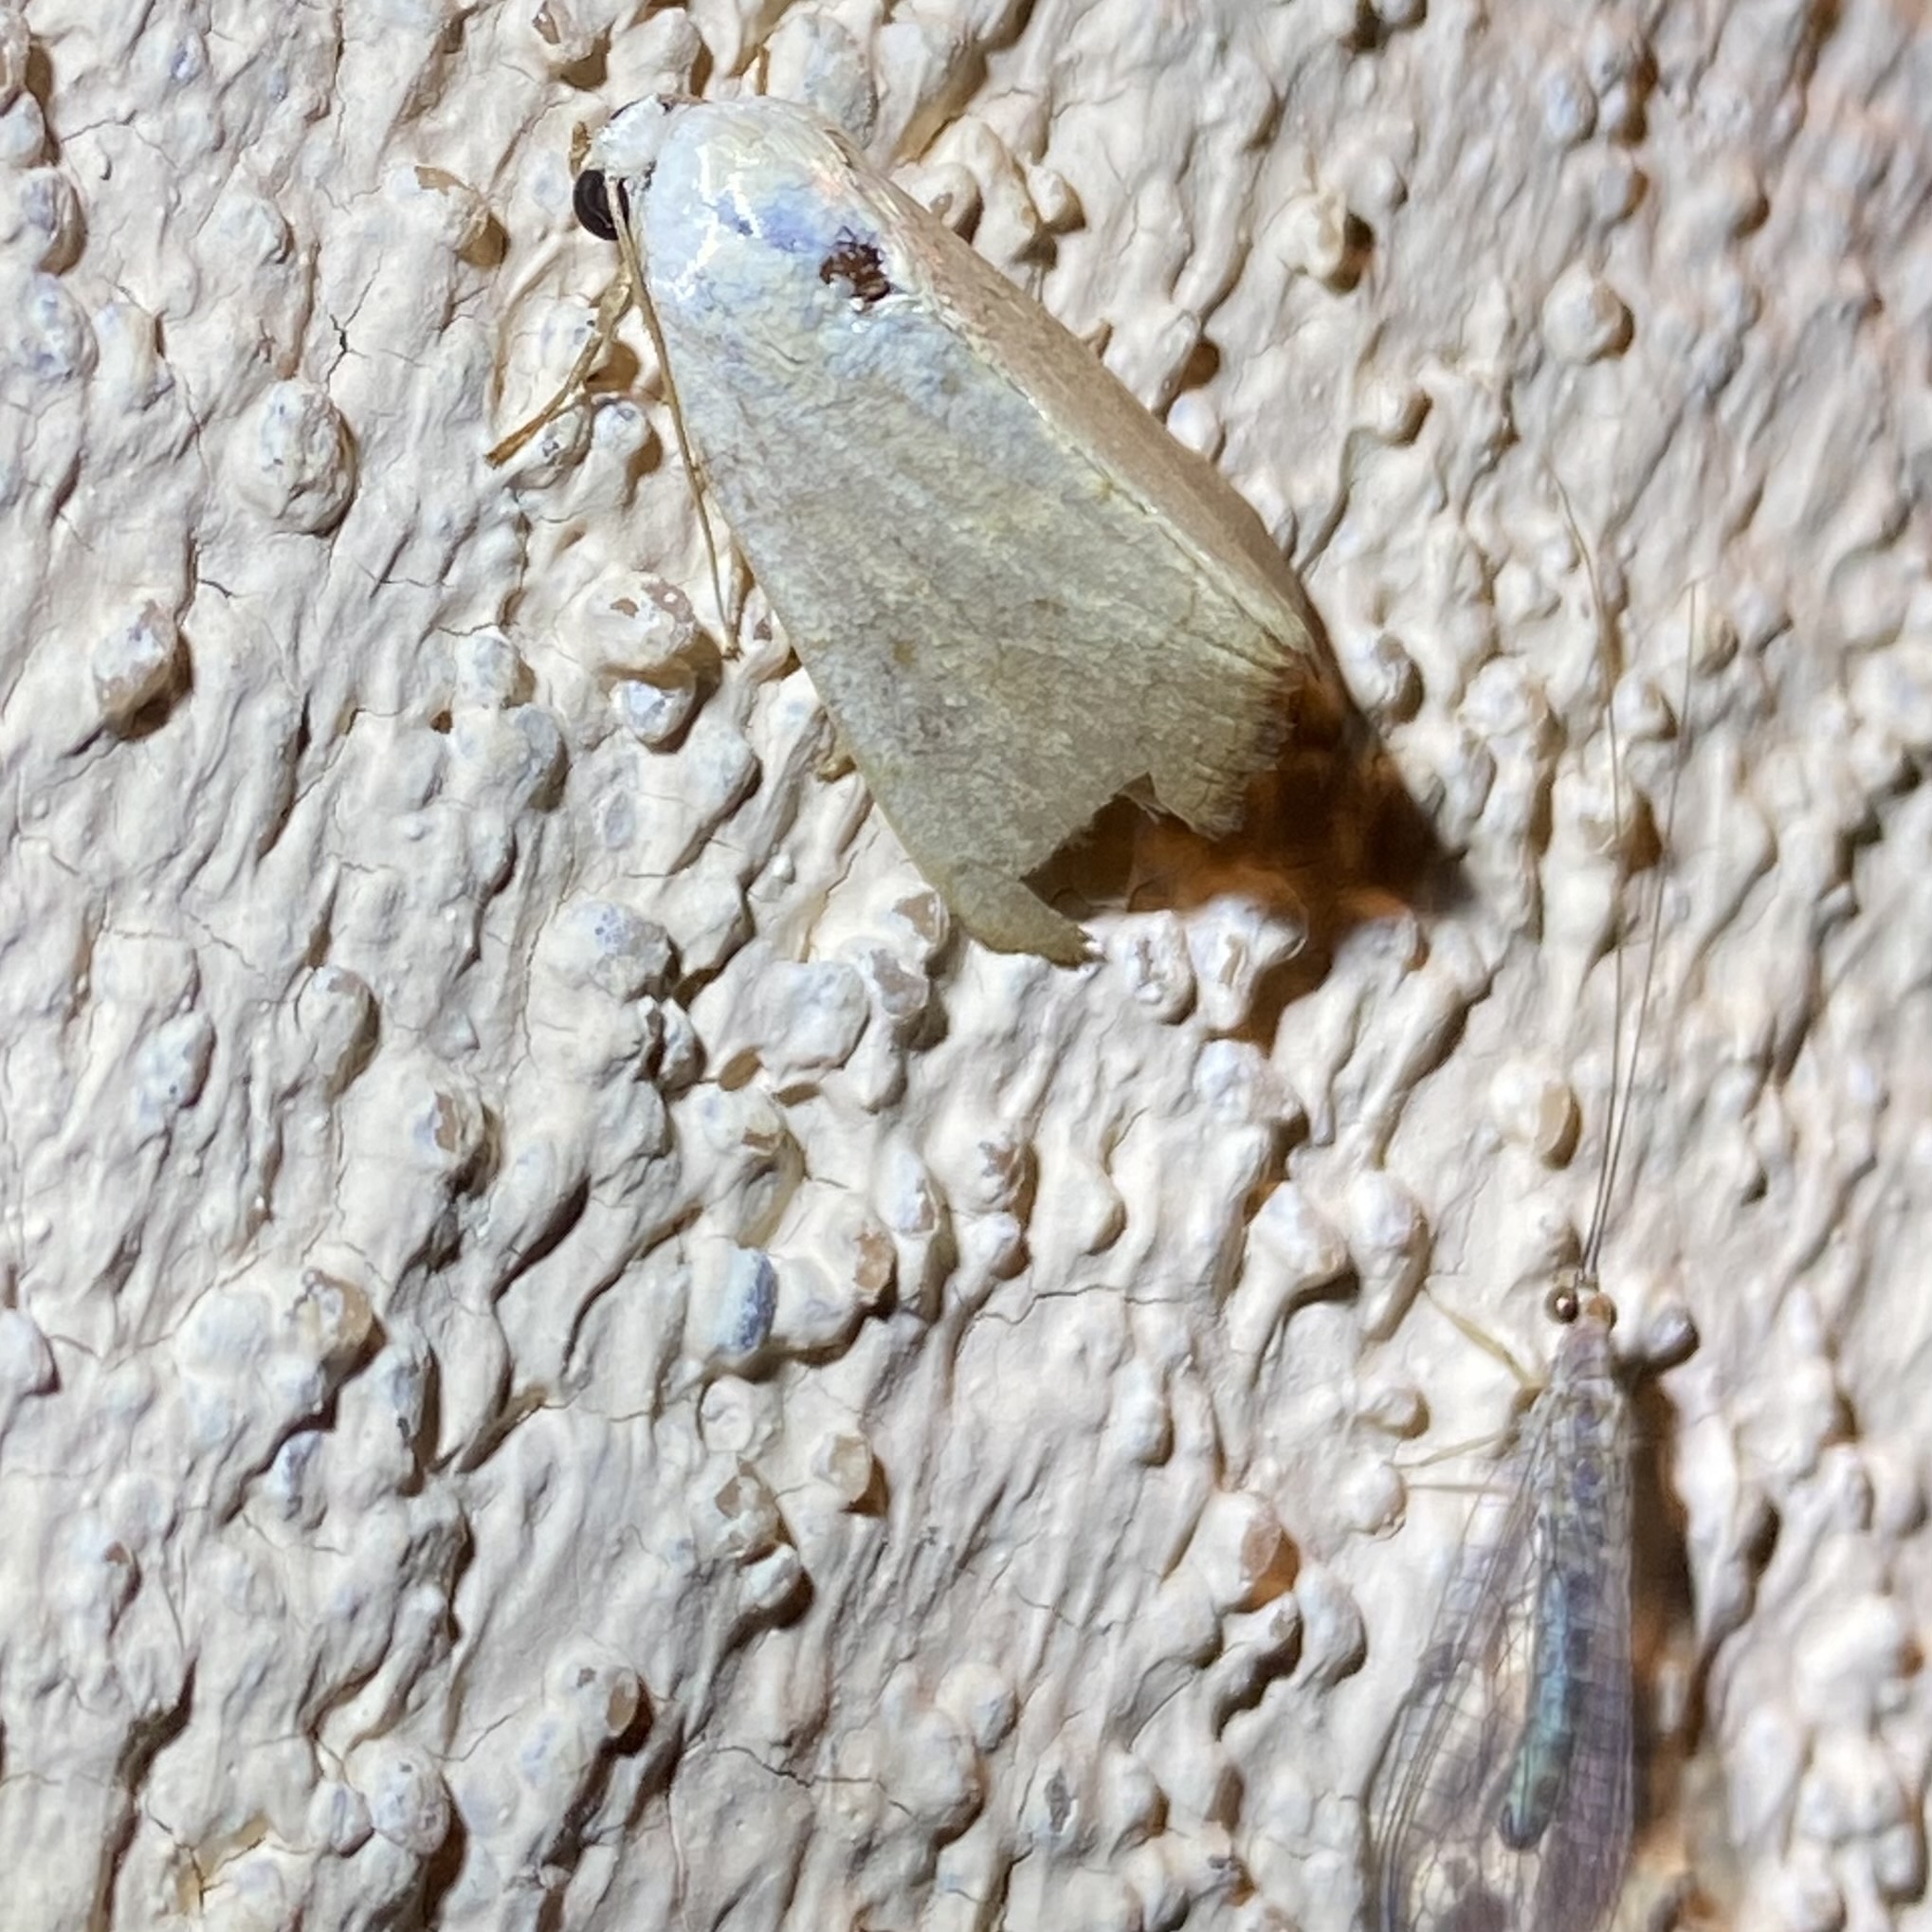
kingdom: Animalia
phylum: Arthropoda
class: Insecta
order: Lepidoptera
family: Noctuidae
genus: Bagisara
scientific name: Bagisara buxea
